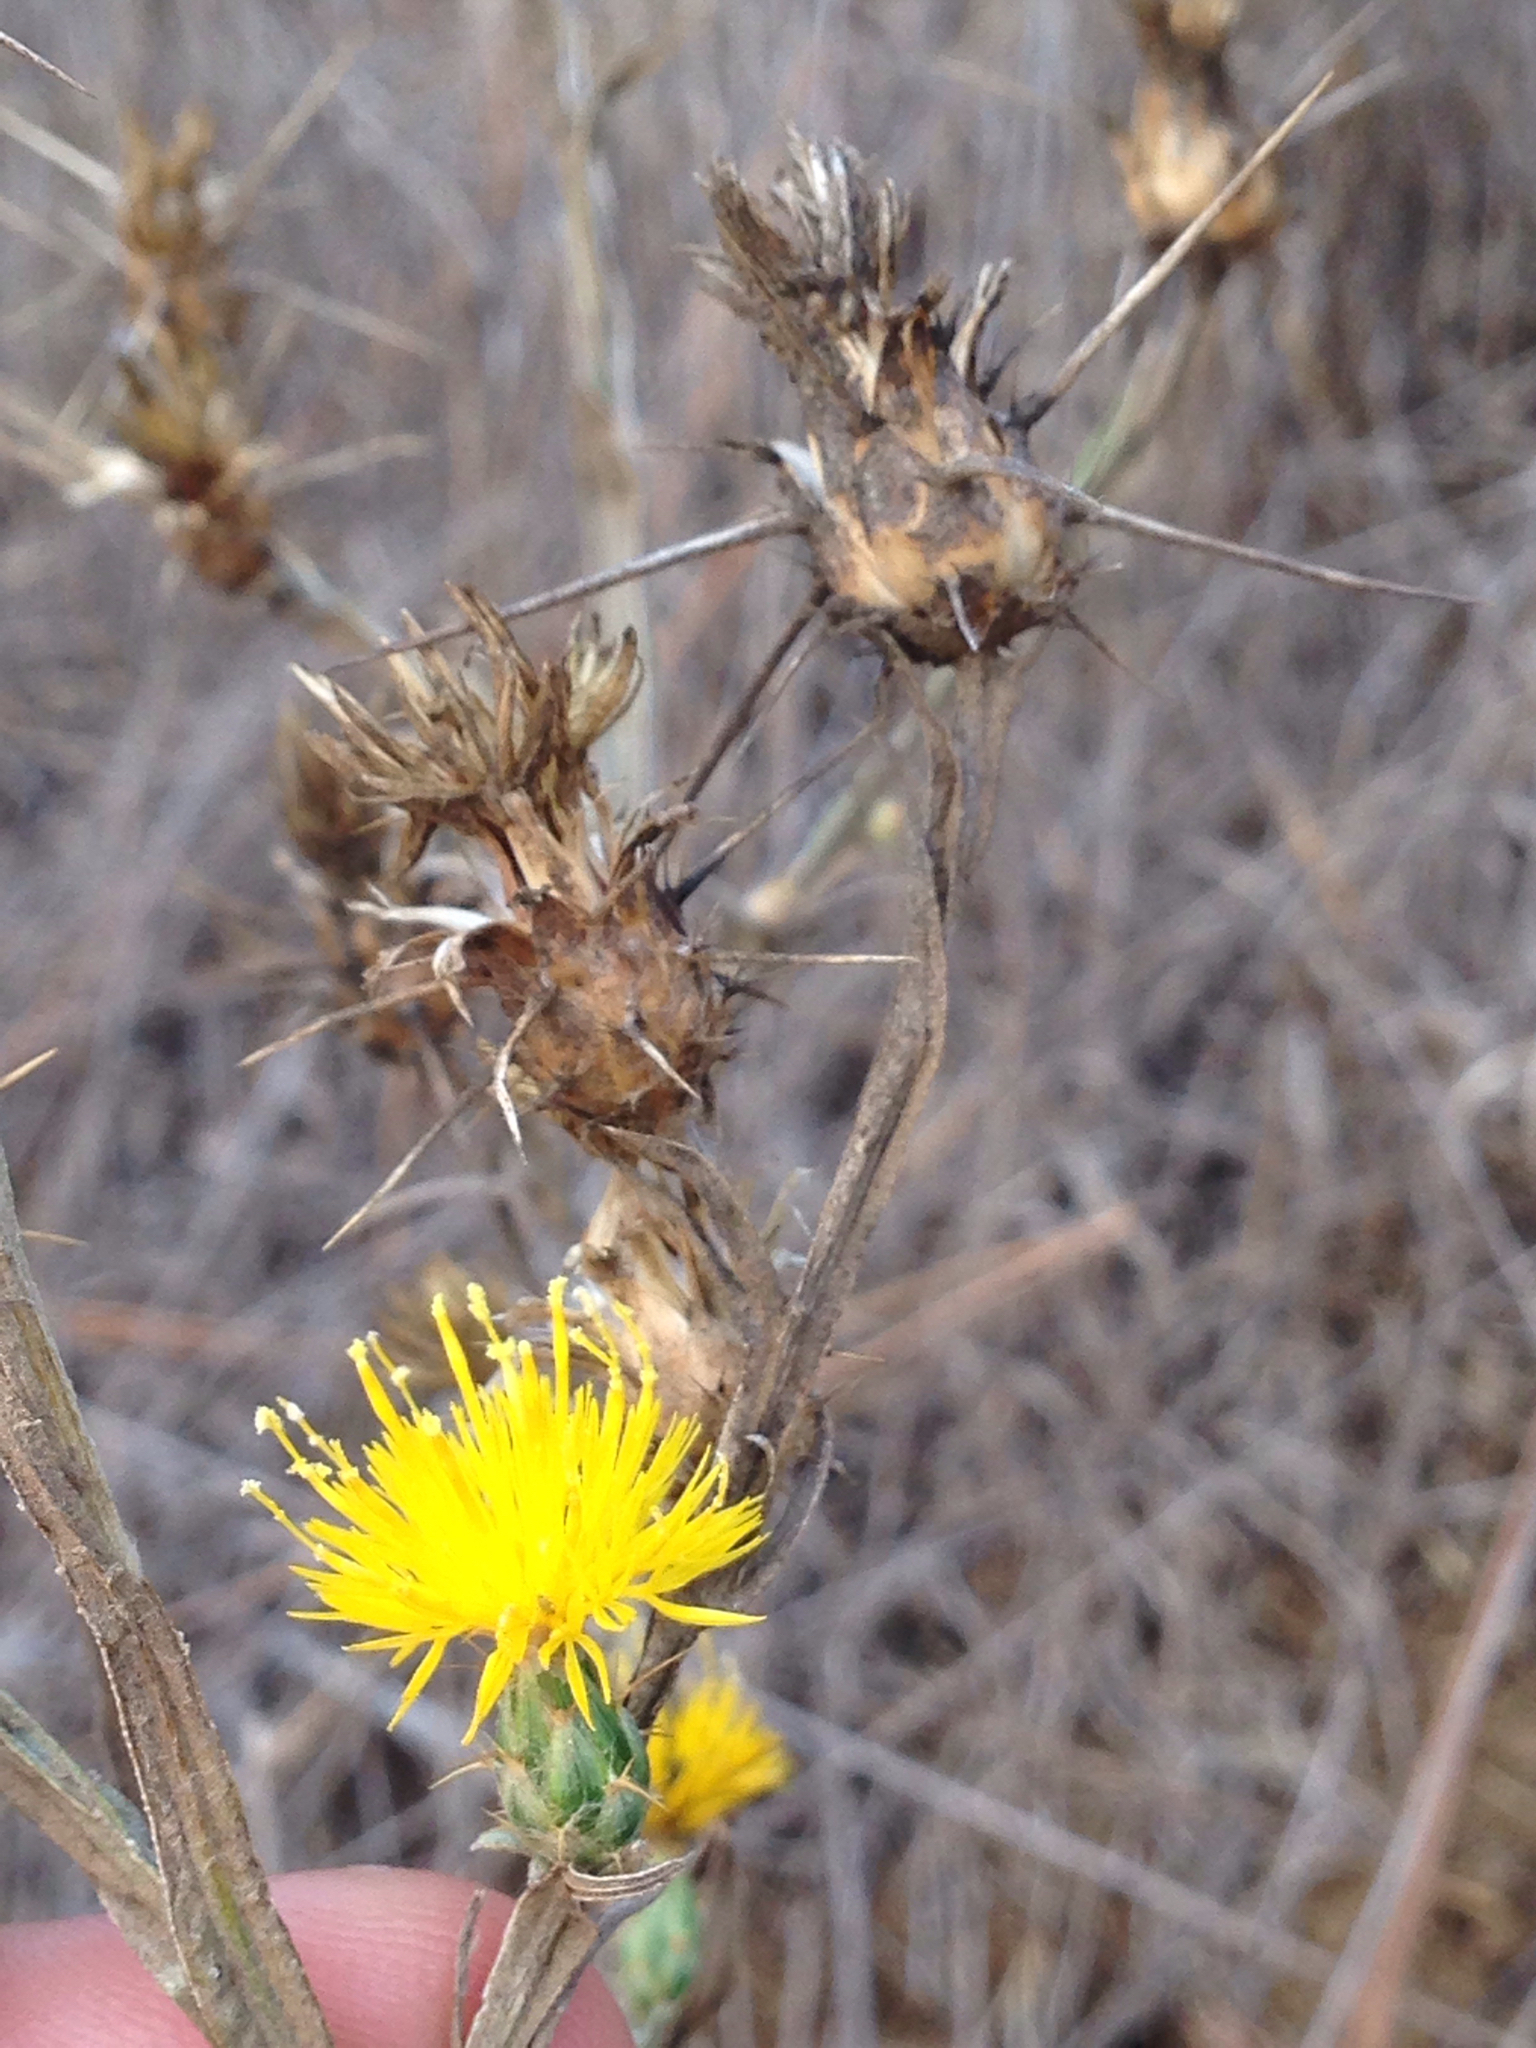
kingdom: Plantae
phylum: Tracheophyta
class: Magnoliopsida
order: Asterales
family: Asteraceae
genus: Centaurea
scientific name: Centaurea solstitialis
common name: Yellow star-thistle
